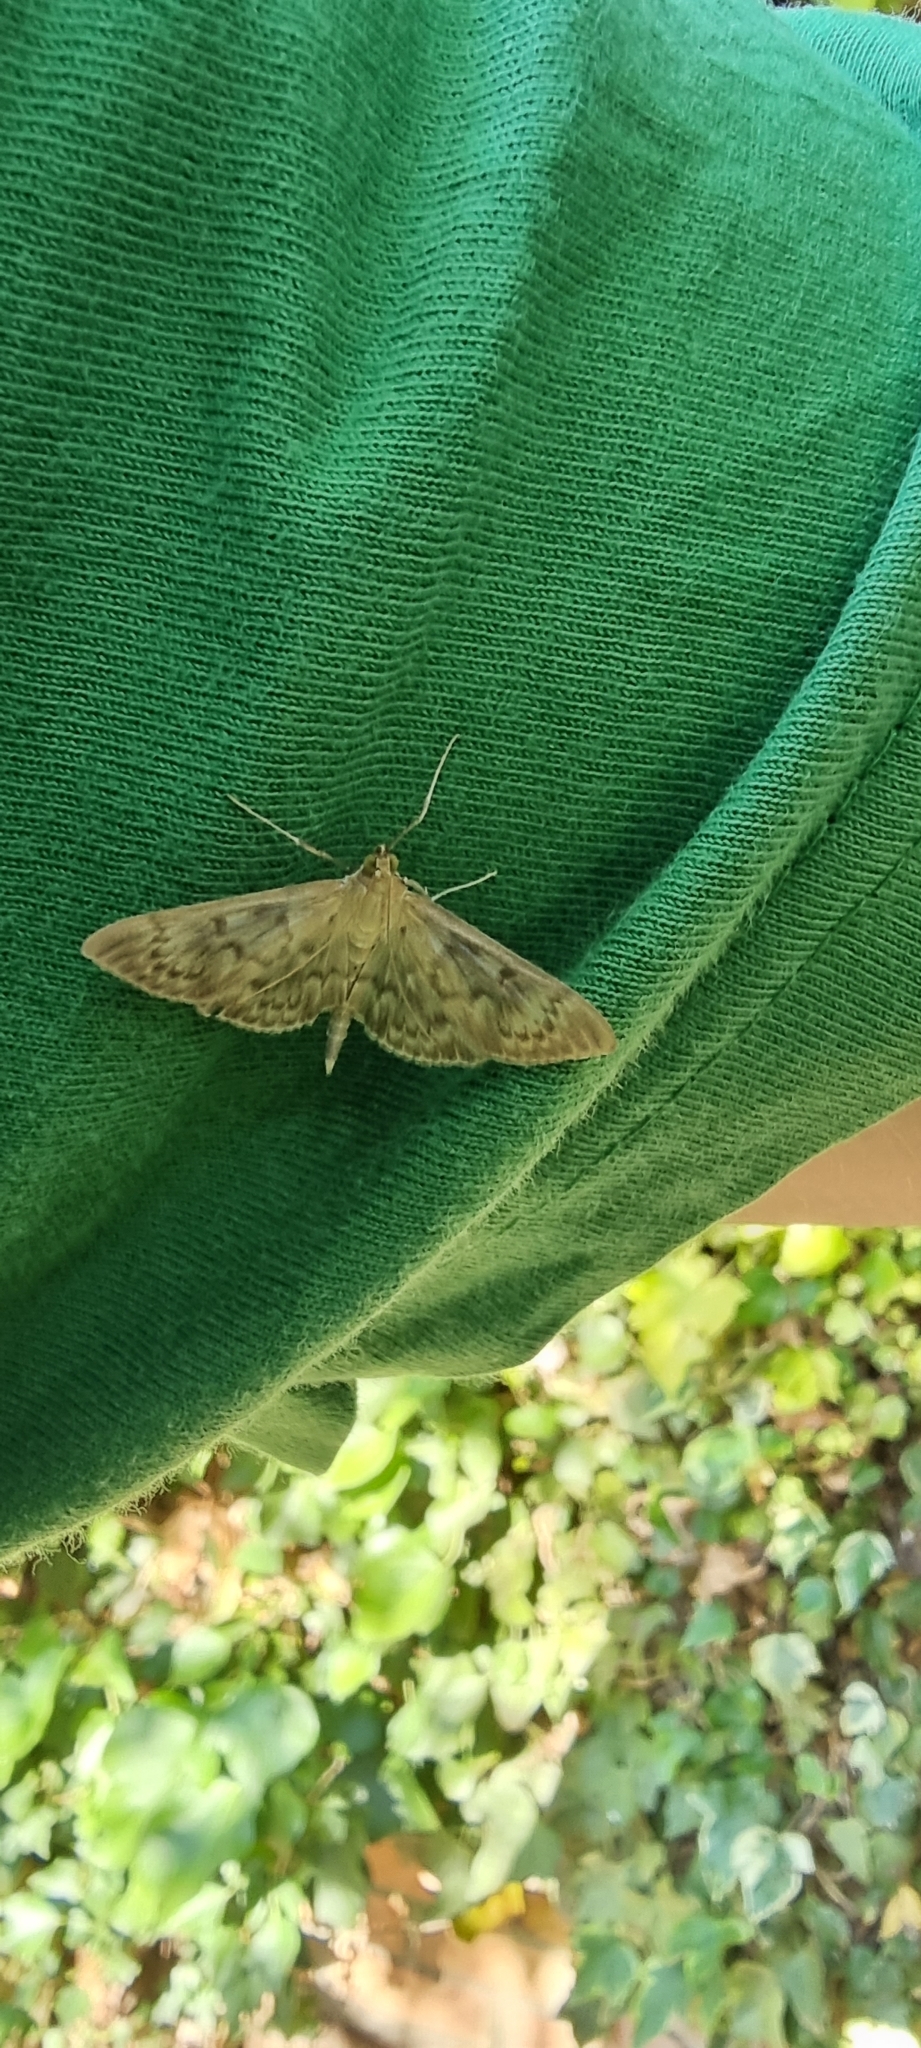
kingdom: Animalia
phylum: Arthropoda
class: Insecta
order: Lepidoptera
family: Crambidae
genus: Patania
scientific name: Patania ruralis
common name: Mother of pearl
